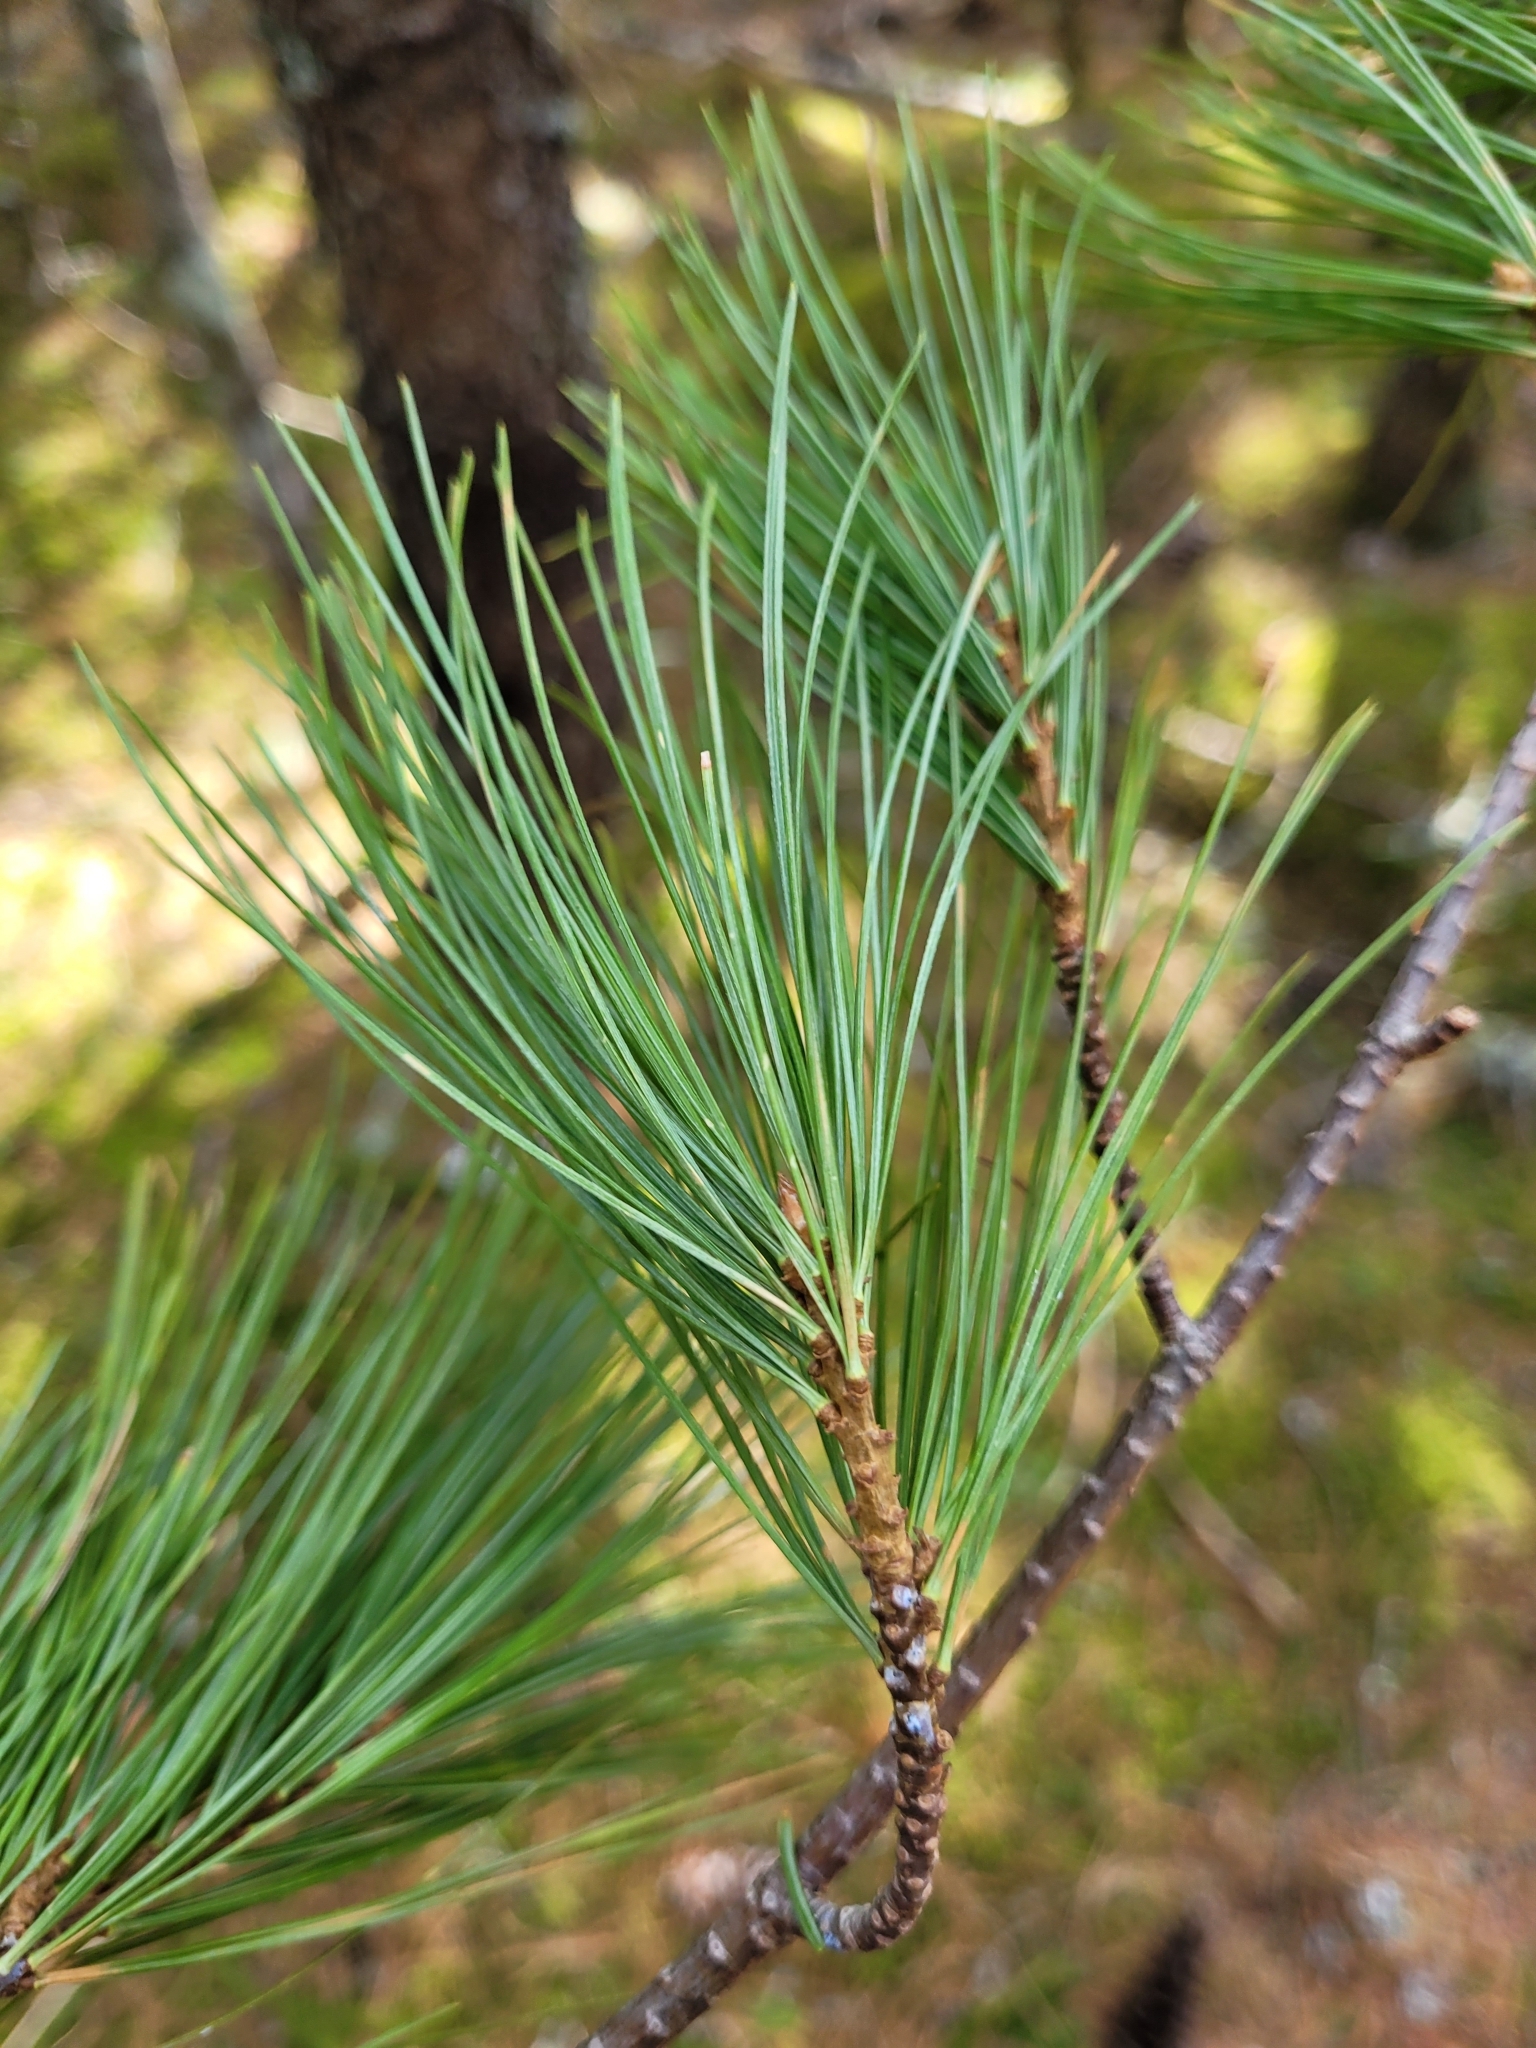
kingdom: Plantae
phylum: Tracheophyta
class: Pinopsida
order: Pinales
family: Pinaceae
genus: Pinus
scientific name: Pinus strobus
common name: Weymouth pine
